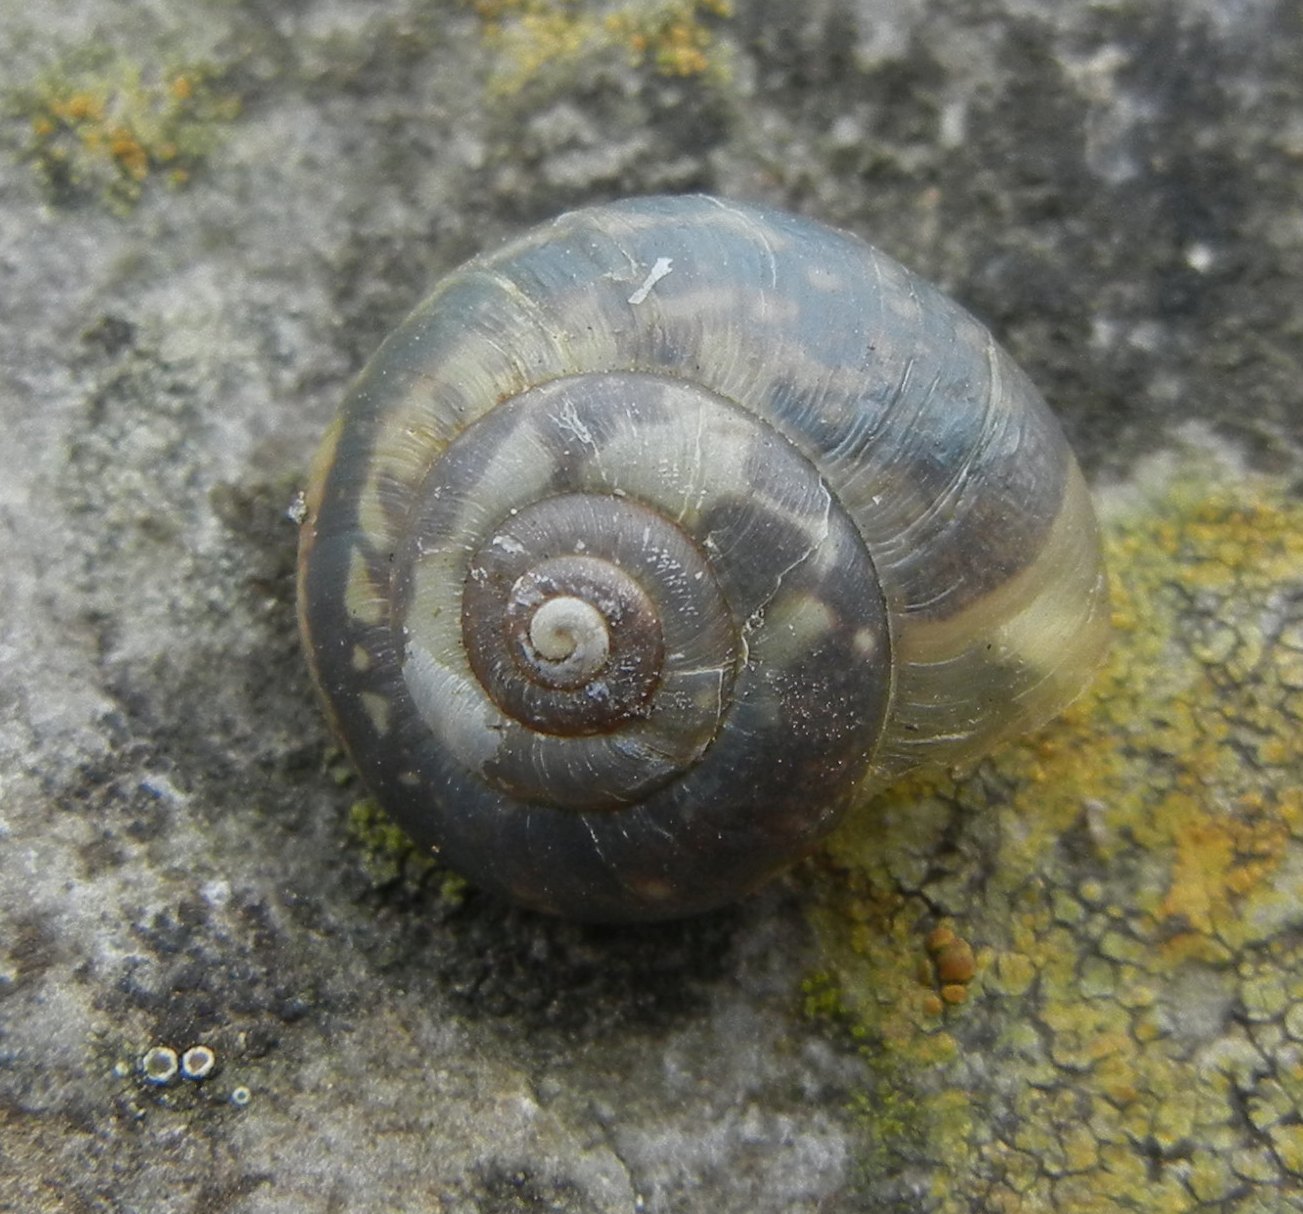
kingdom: Animalia
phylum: Mollusca
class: Gastropoda
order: Stylommatophora
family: Hygromiidae
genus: Monacha
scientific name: Monacha cantiana
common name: Kentish snail
